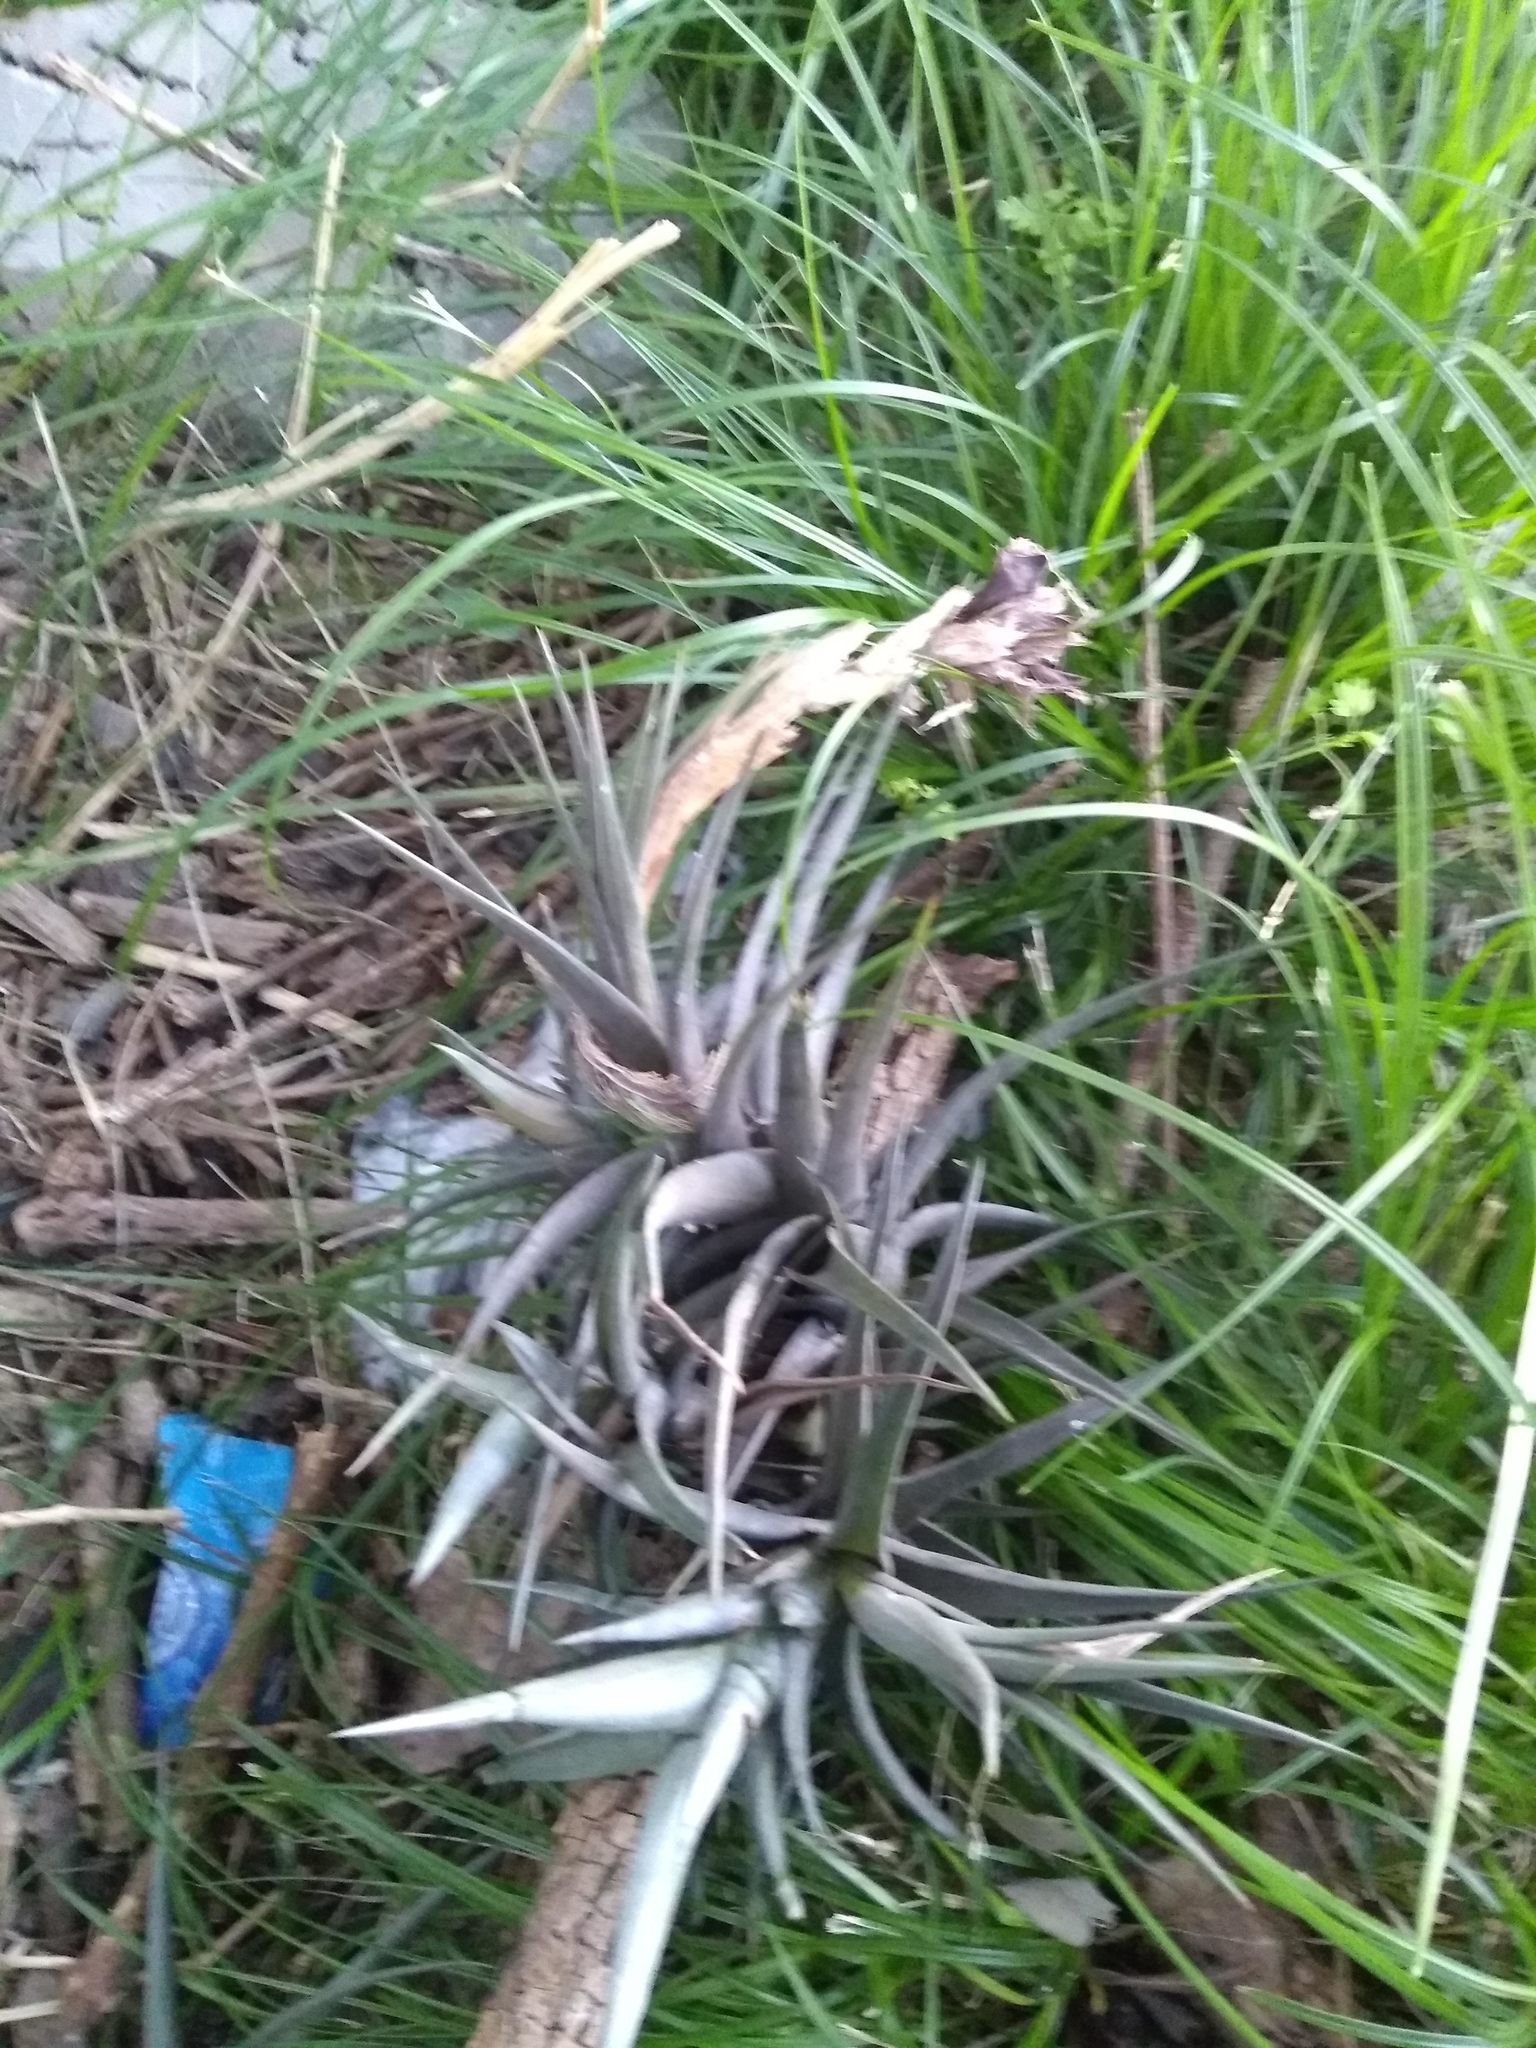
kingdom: Plantae
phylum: Tracheophyta
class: Liliopsida
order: Poales
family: Bromeliaceae
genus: Tillandsia
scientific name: Tillandsia aeranthos
